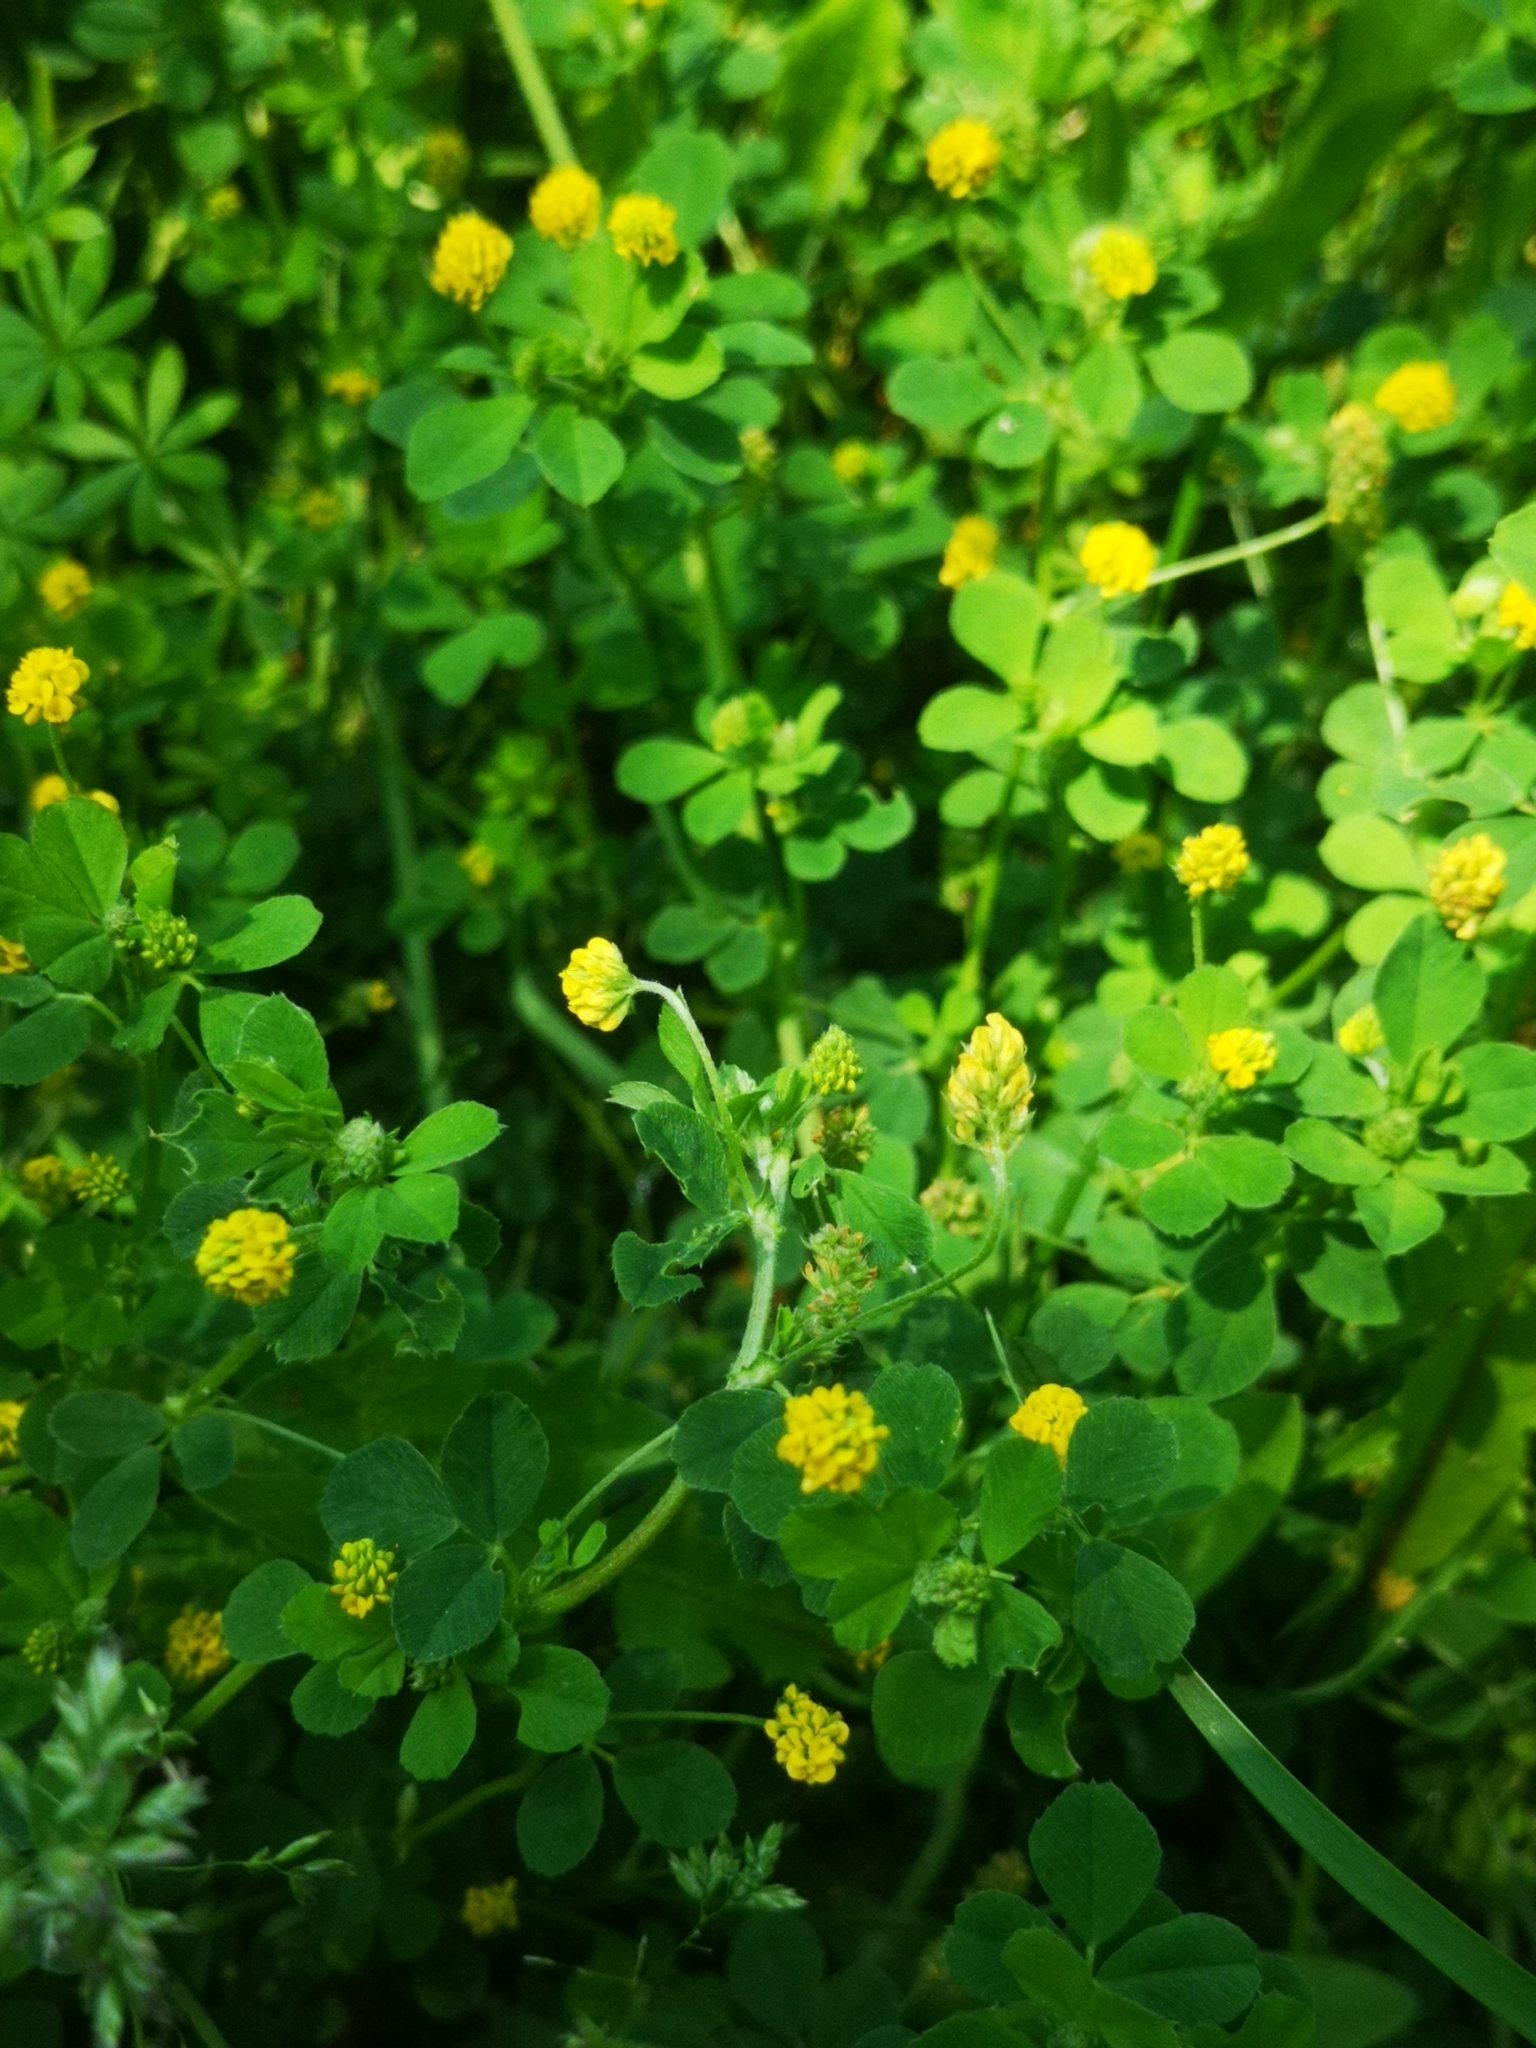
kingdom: Plantae
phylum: Tracheophyta
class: Magnoliopsida
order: Fabales
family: Fabaceae
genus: Medicago
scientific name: Medicago lupulina
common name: Black medick
